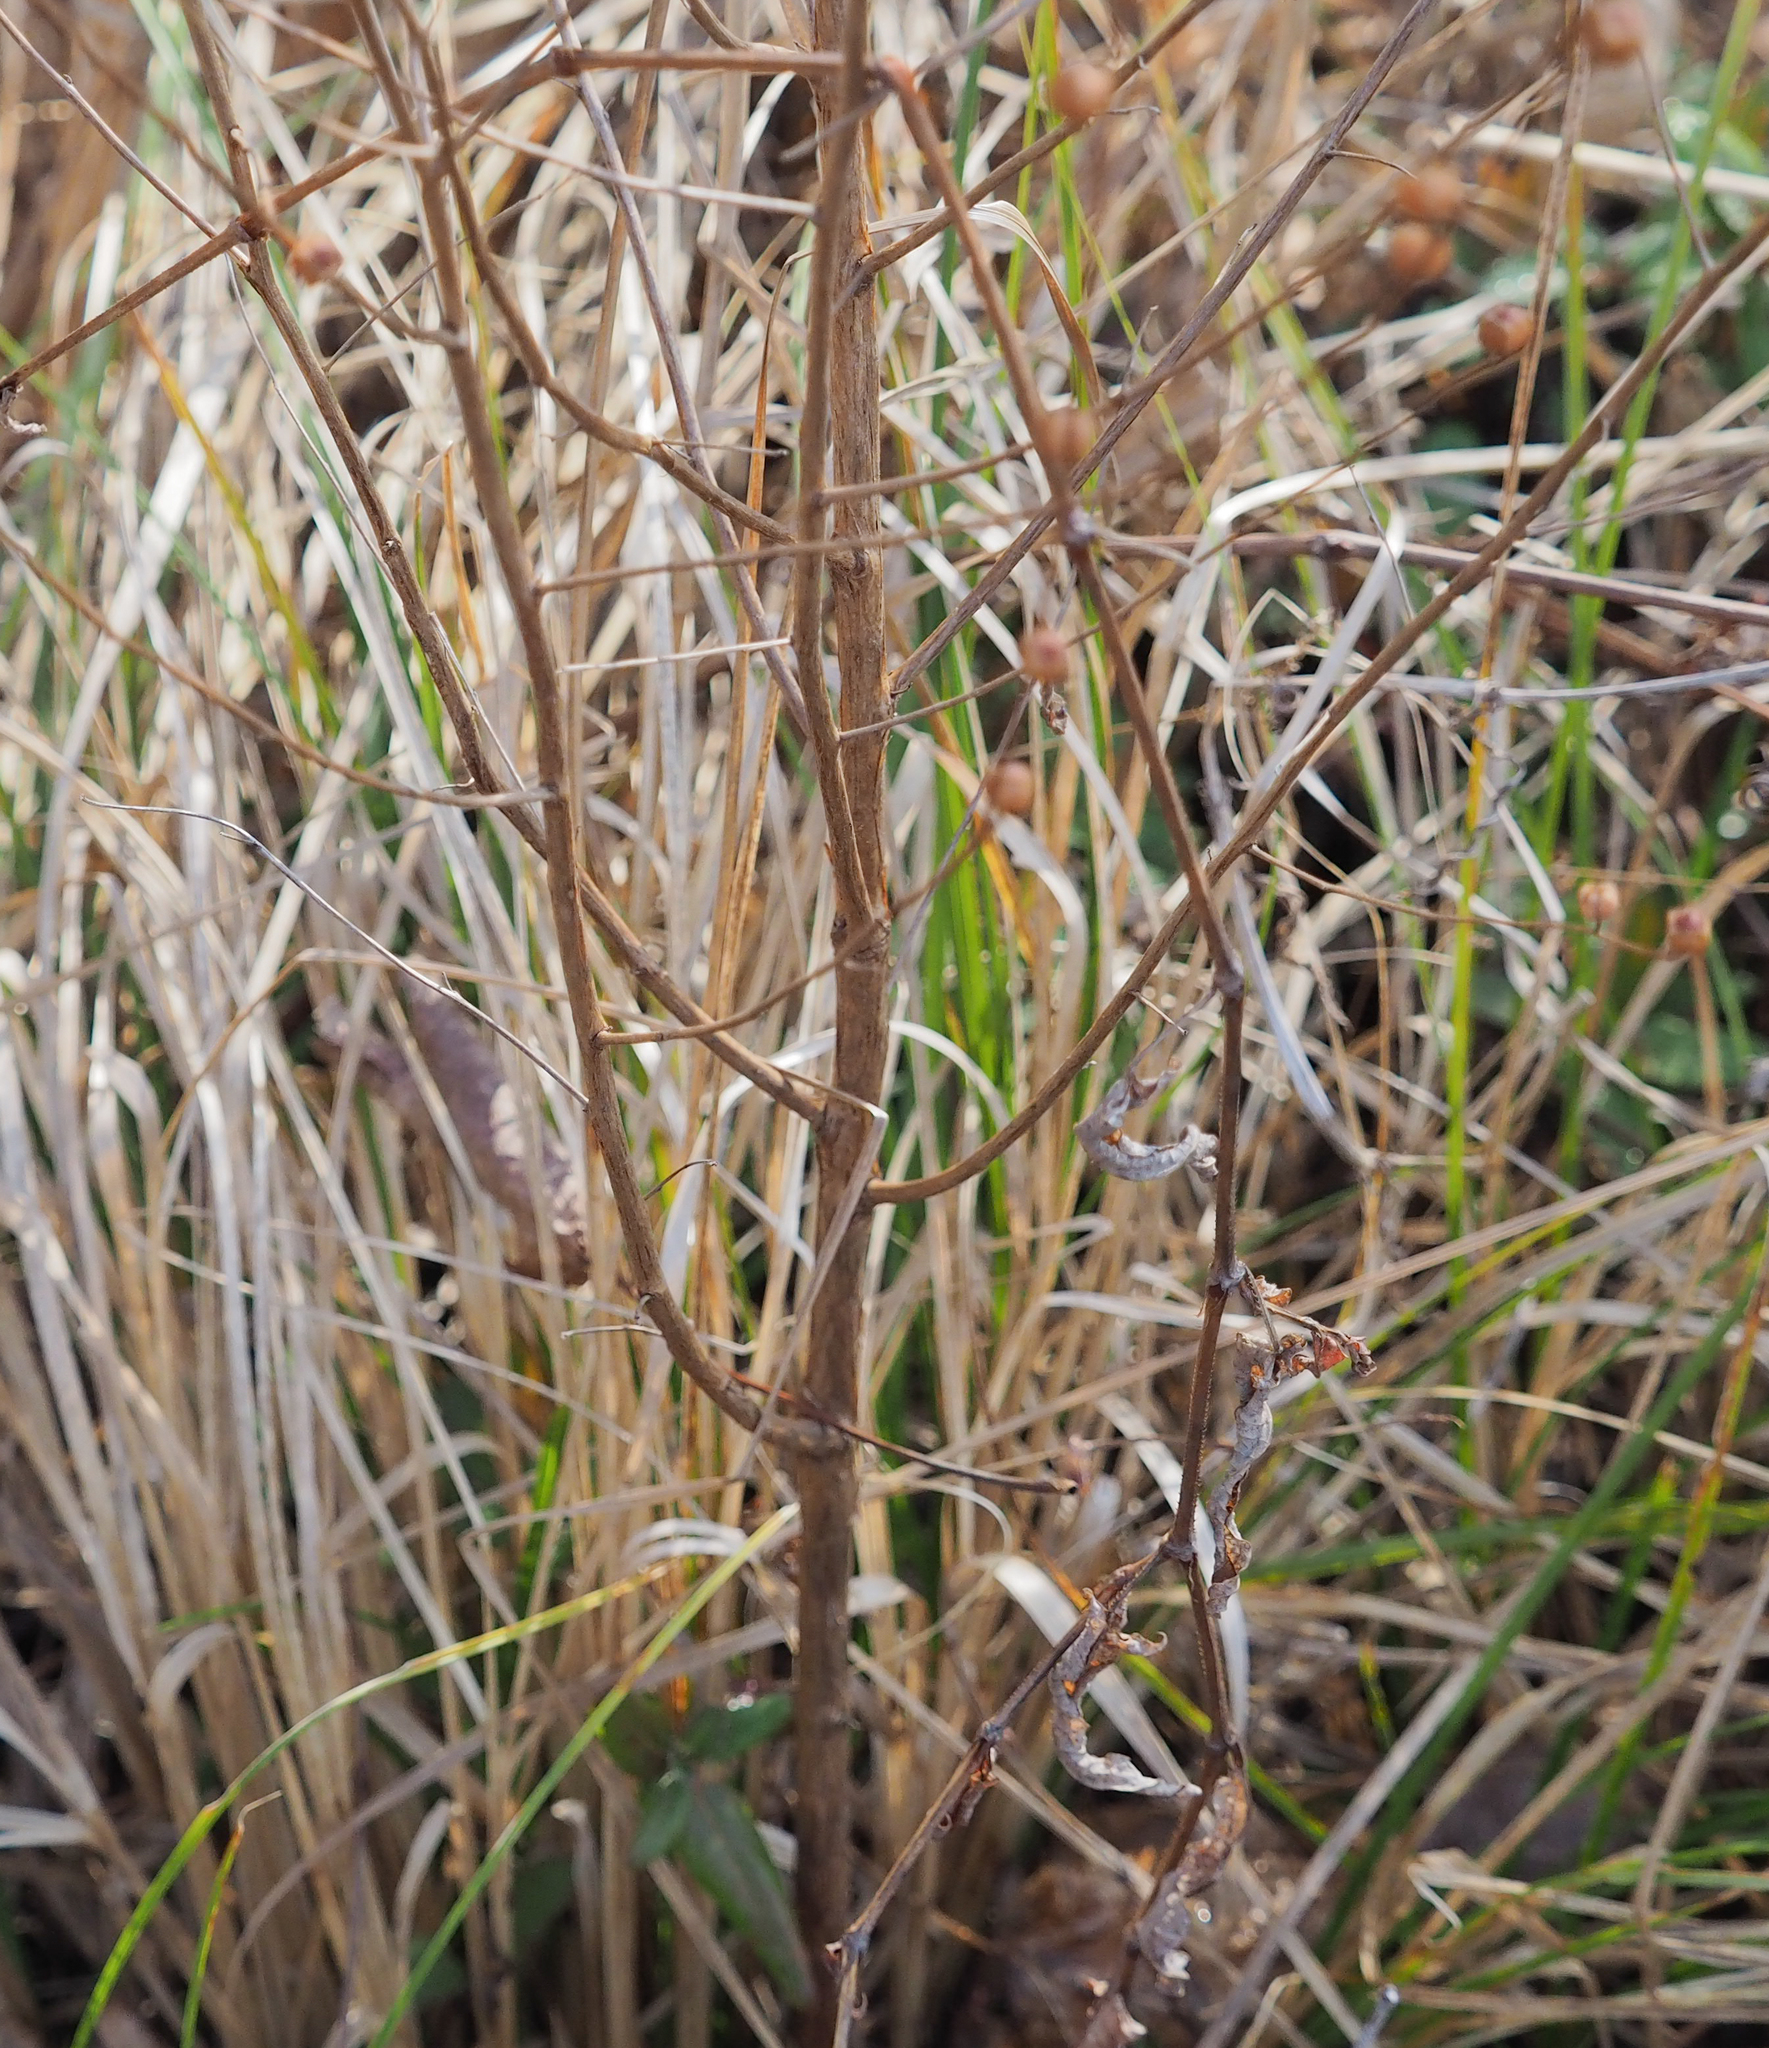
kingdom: Plantae
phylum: Tracheophyta
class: Magnoliopsida
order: Myrtales
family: Onagraceae
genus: Ludwigia
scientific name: Ludwigia alternifolia
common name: Rattlebox
